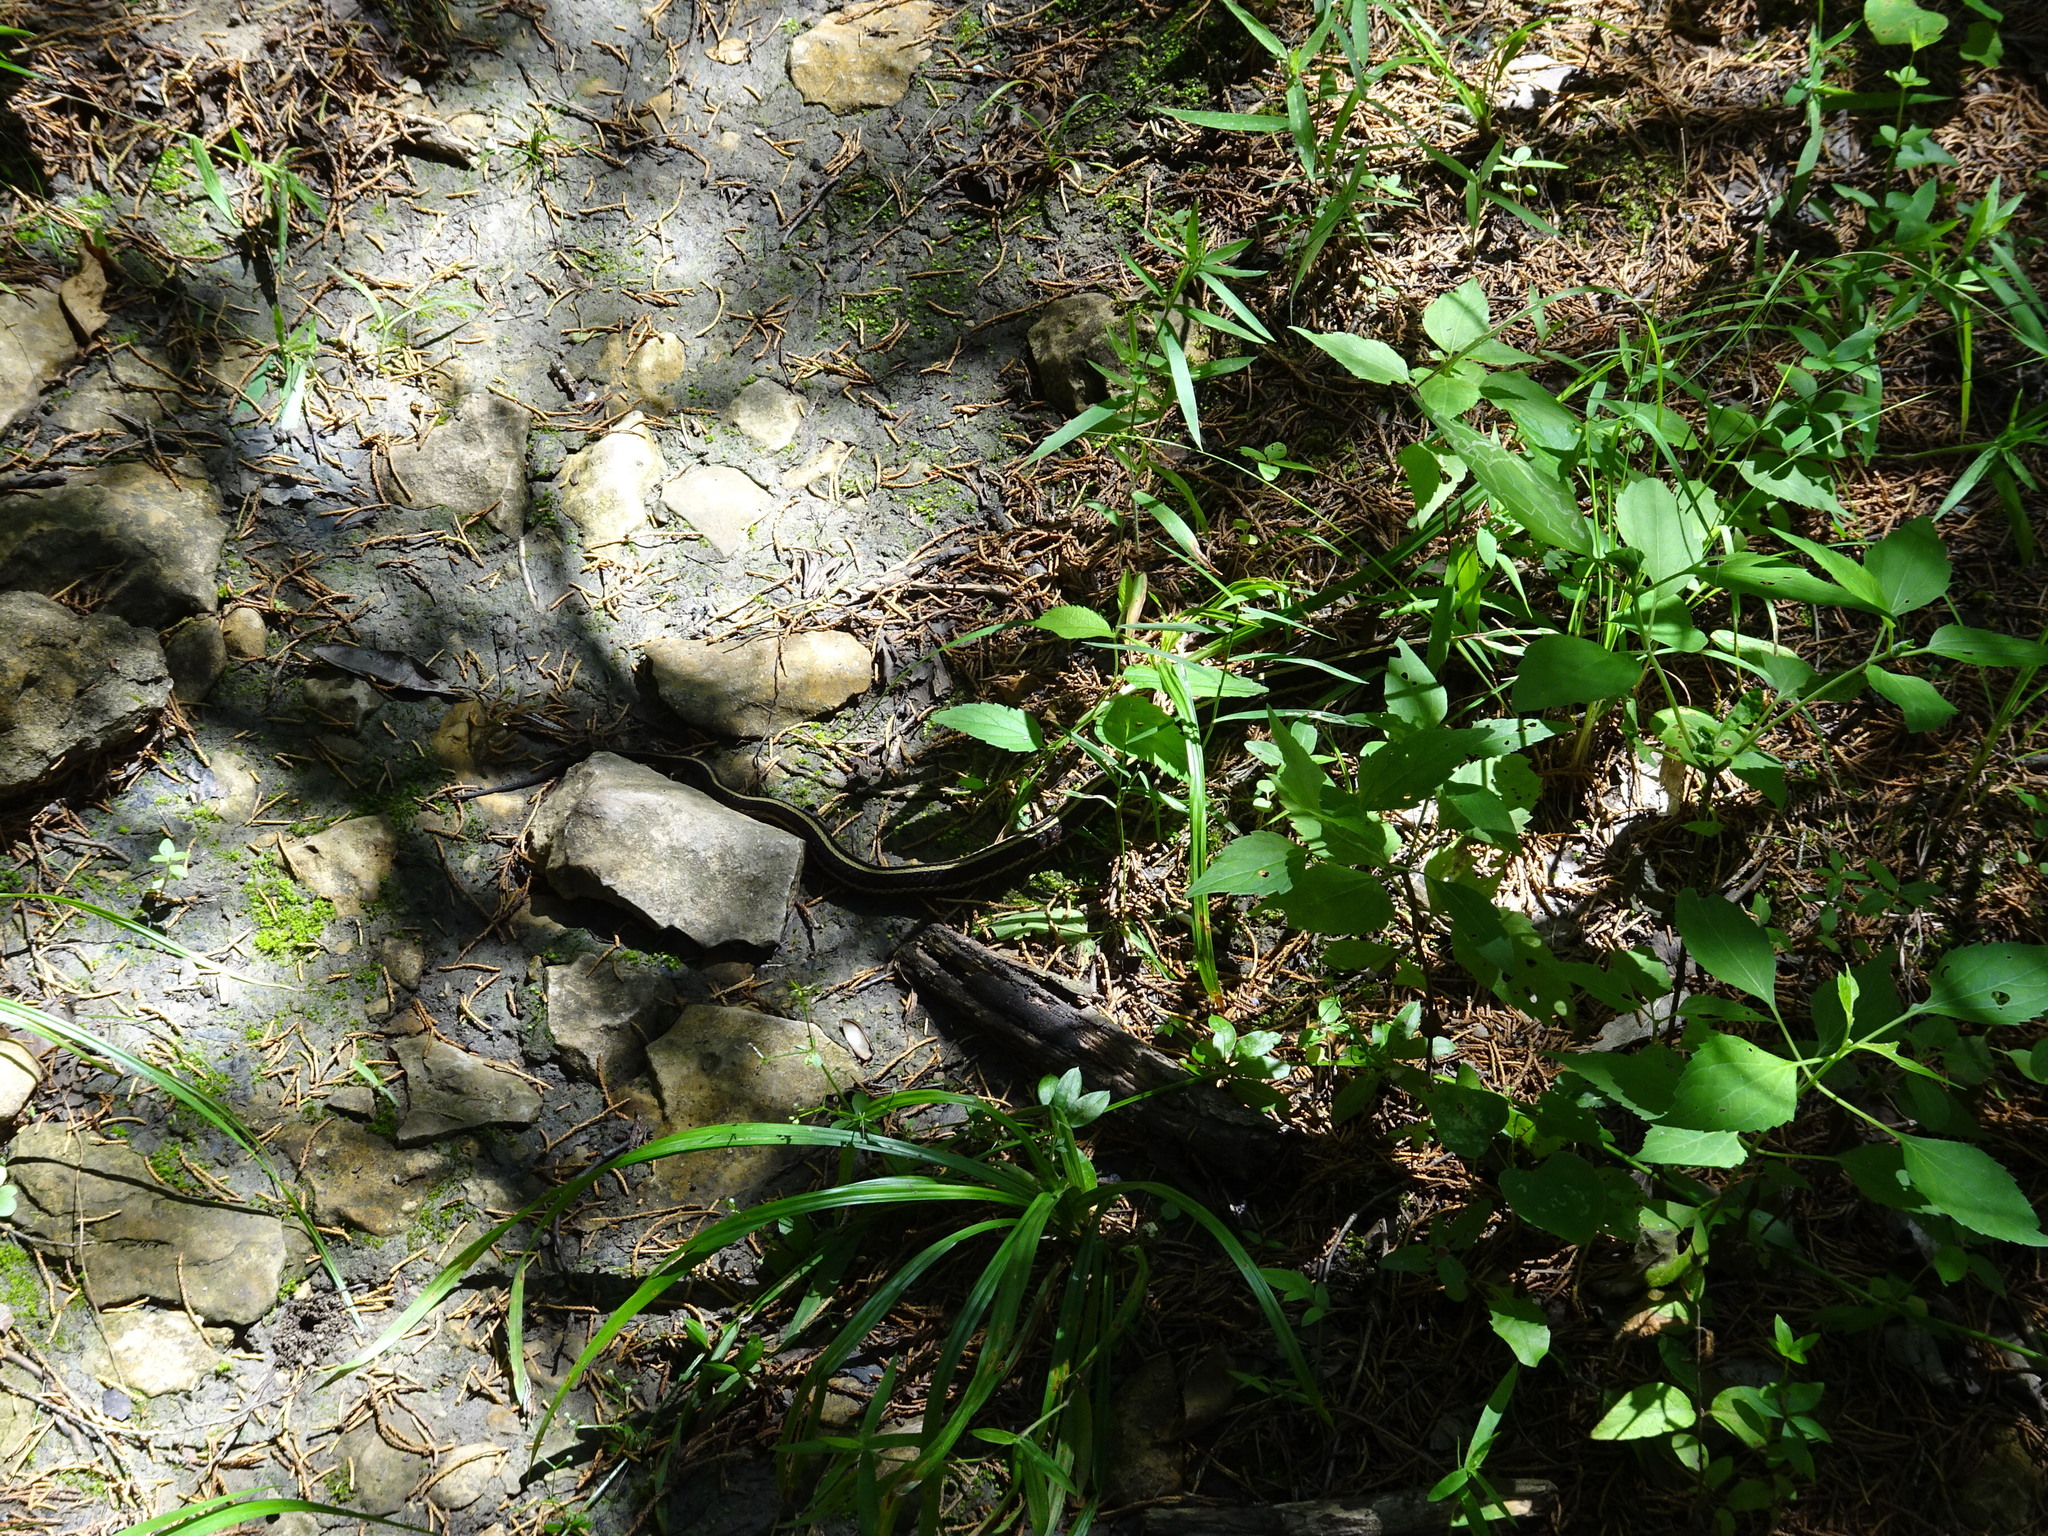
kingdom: Animalia
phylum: Chordata
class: Squamata
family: Colubridae
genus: Thamnophis
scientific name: Thamnophis sirtalis
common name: Common garter snake
